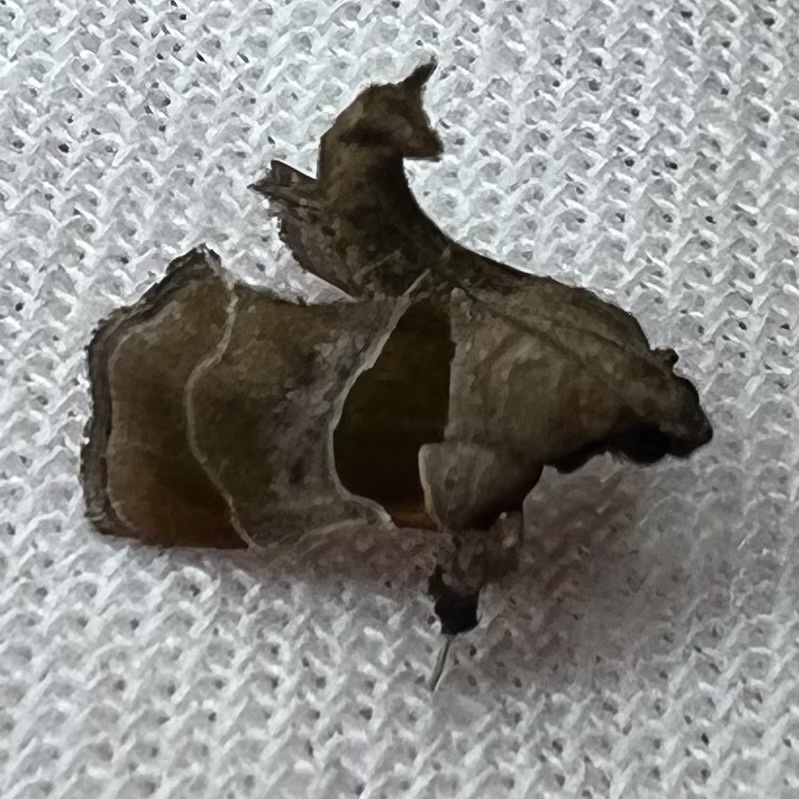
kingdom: Animalia
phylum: Arthropoda
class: Insecta
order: Lepidoptera
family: Pyralidae
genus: Tosale
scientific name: Tosale oviplagalis
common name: Dimorphic tosale moth
